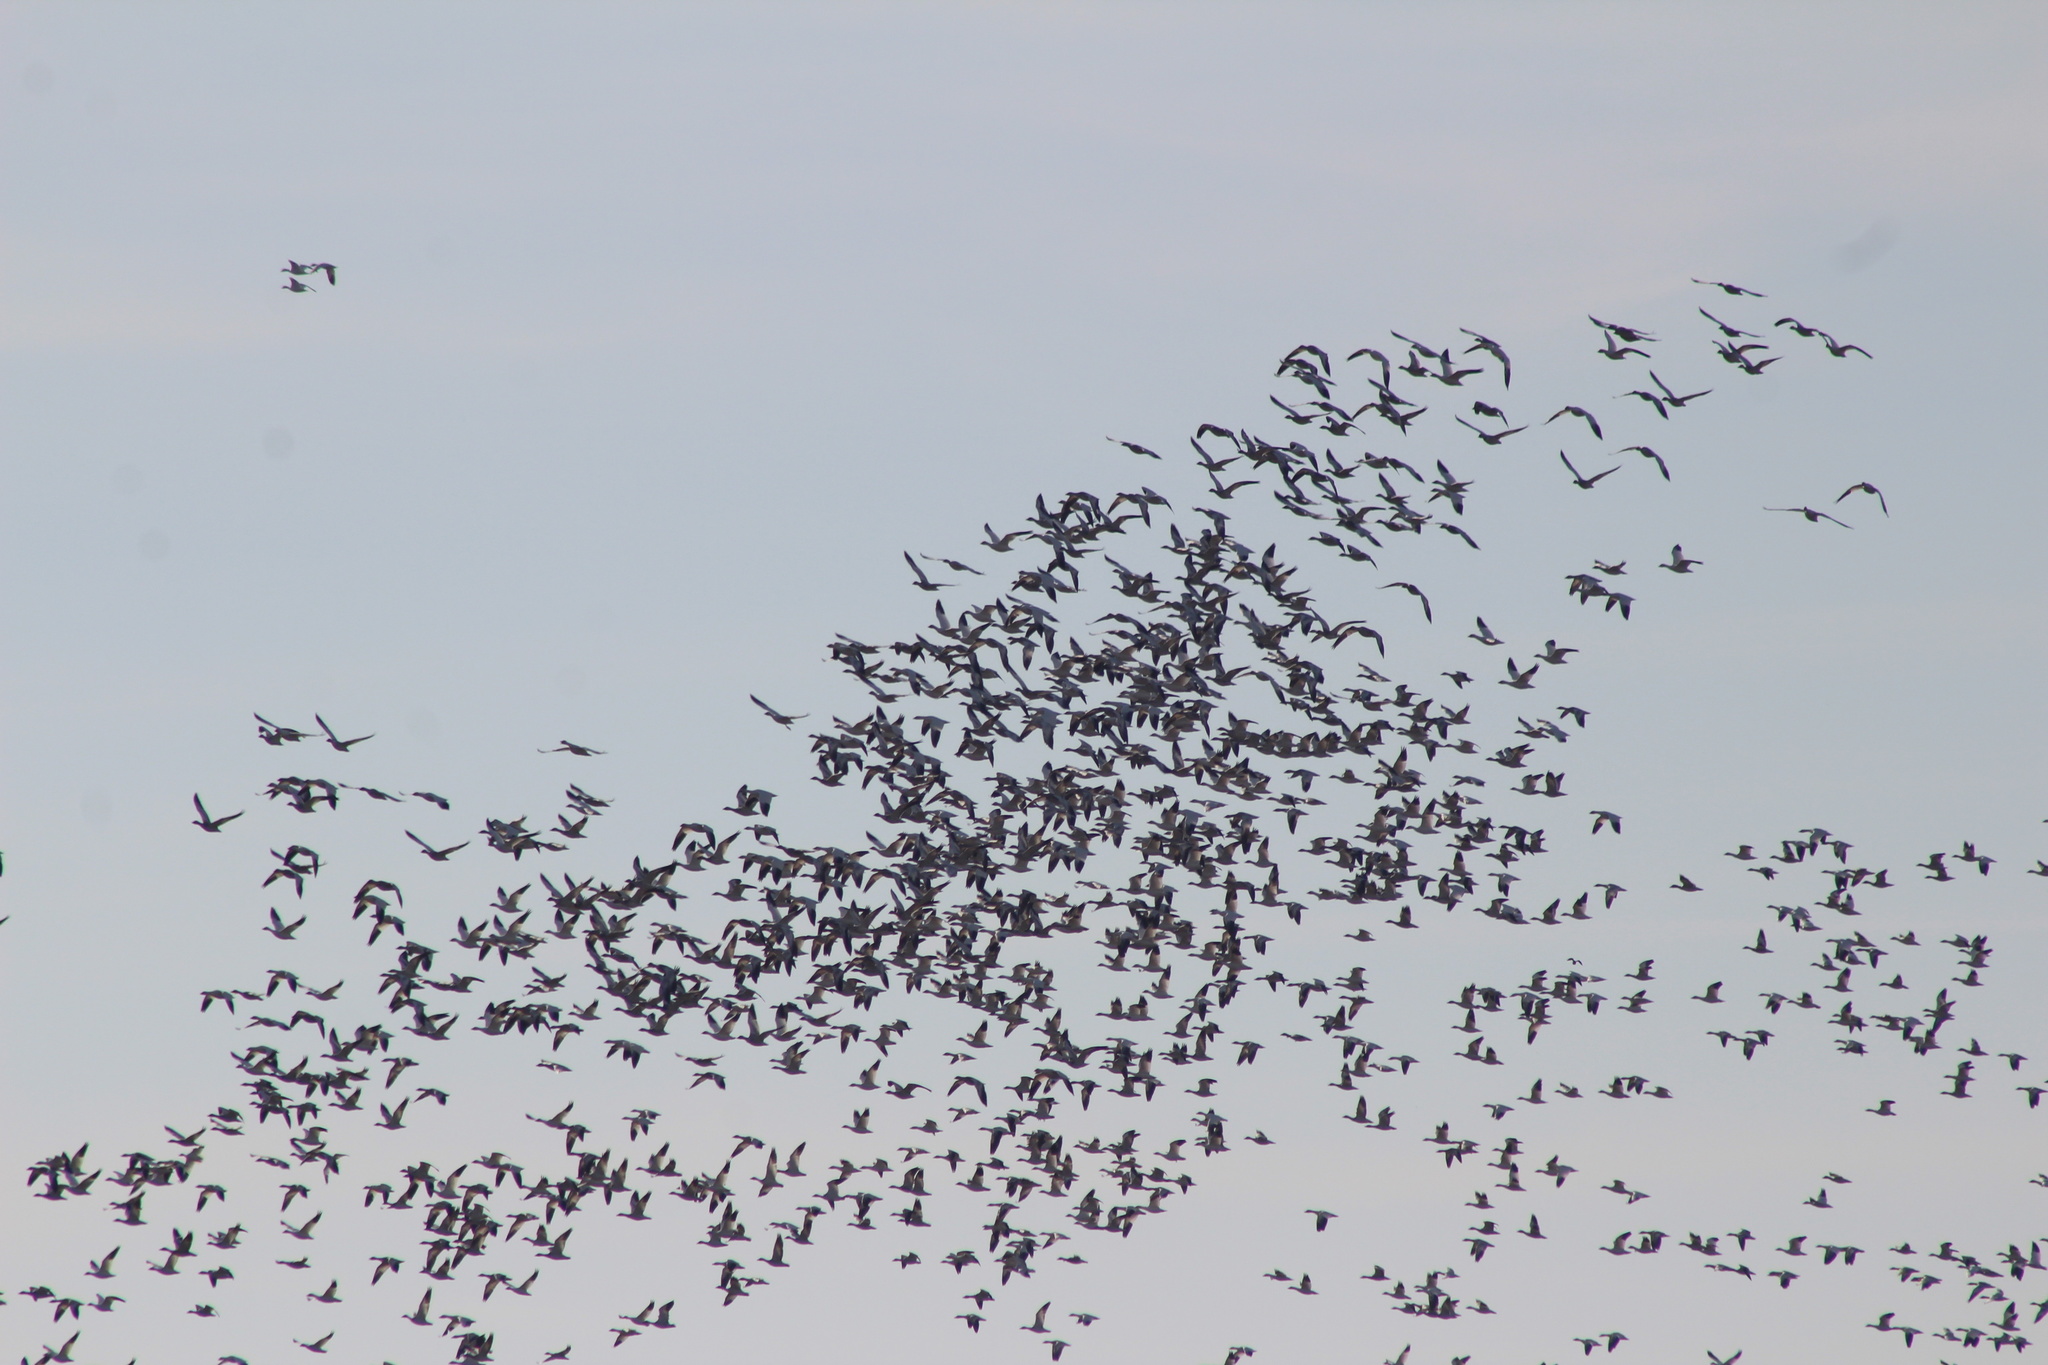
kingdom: Animalia
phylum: Chordata
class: Aves
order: Anseriformes
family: Anatidae
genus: Anser
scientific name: Anser caerulescens
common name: Snow goose
